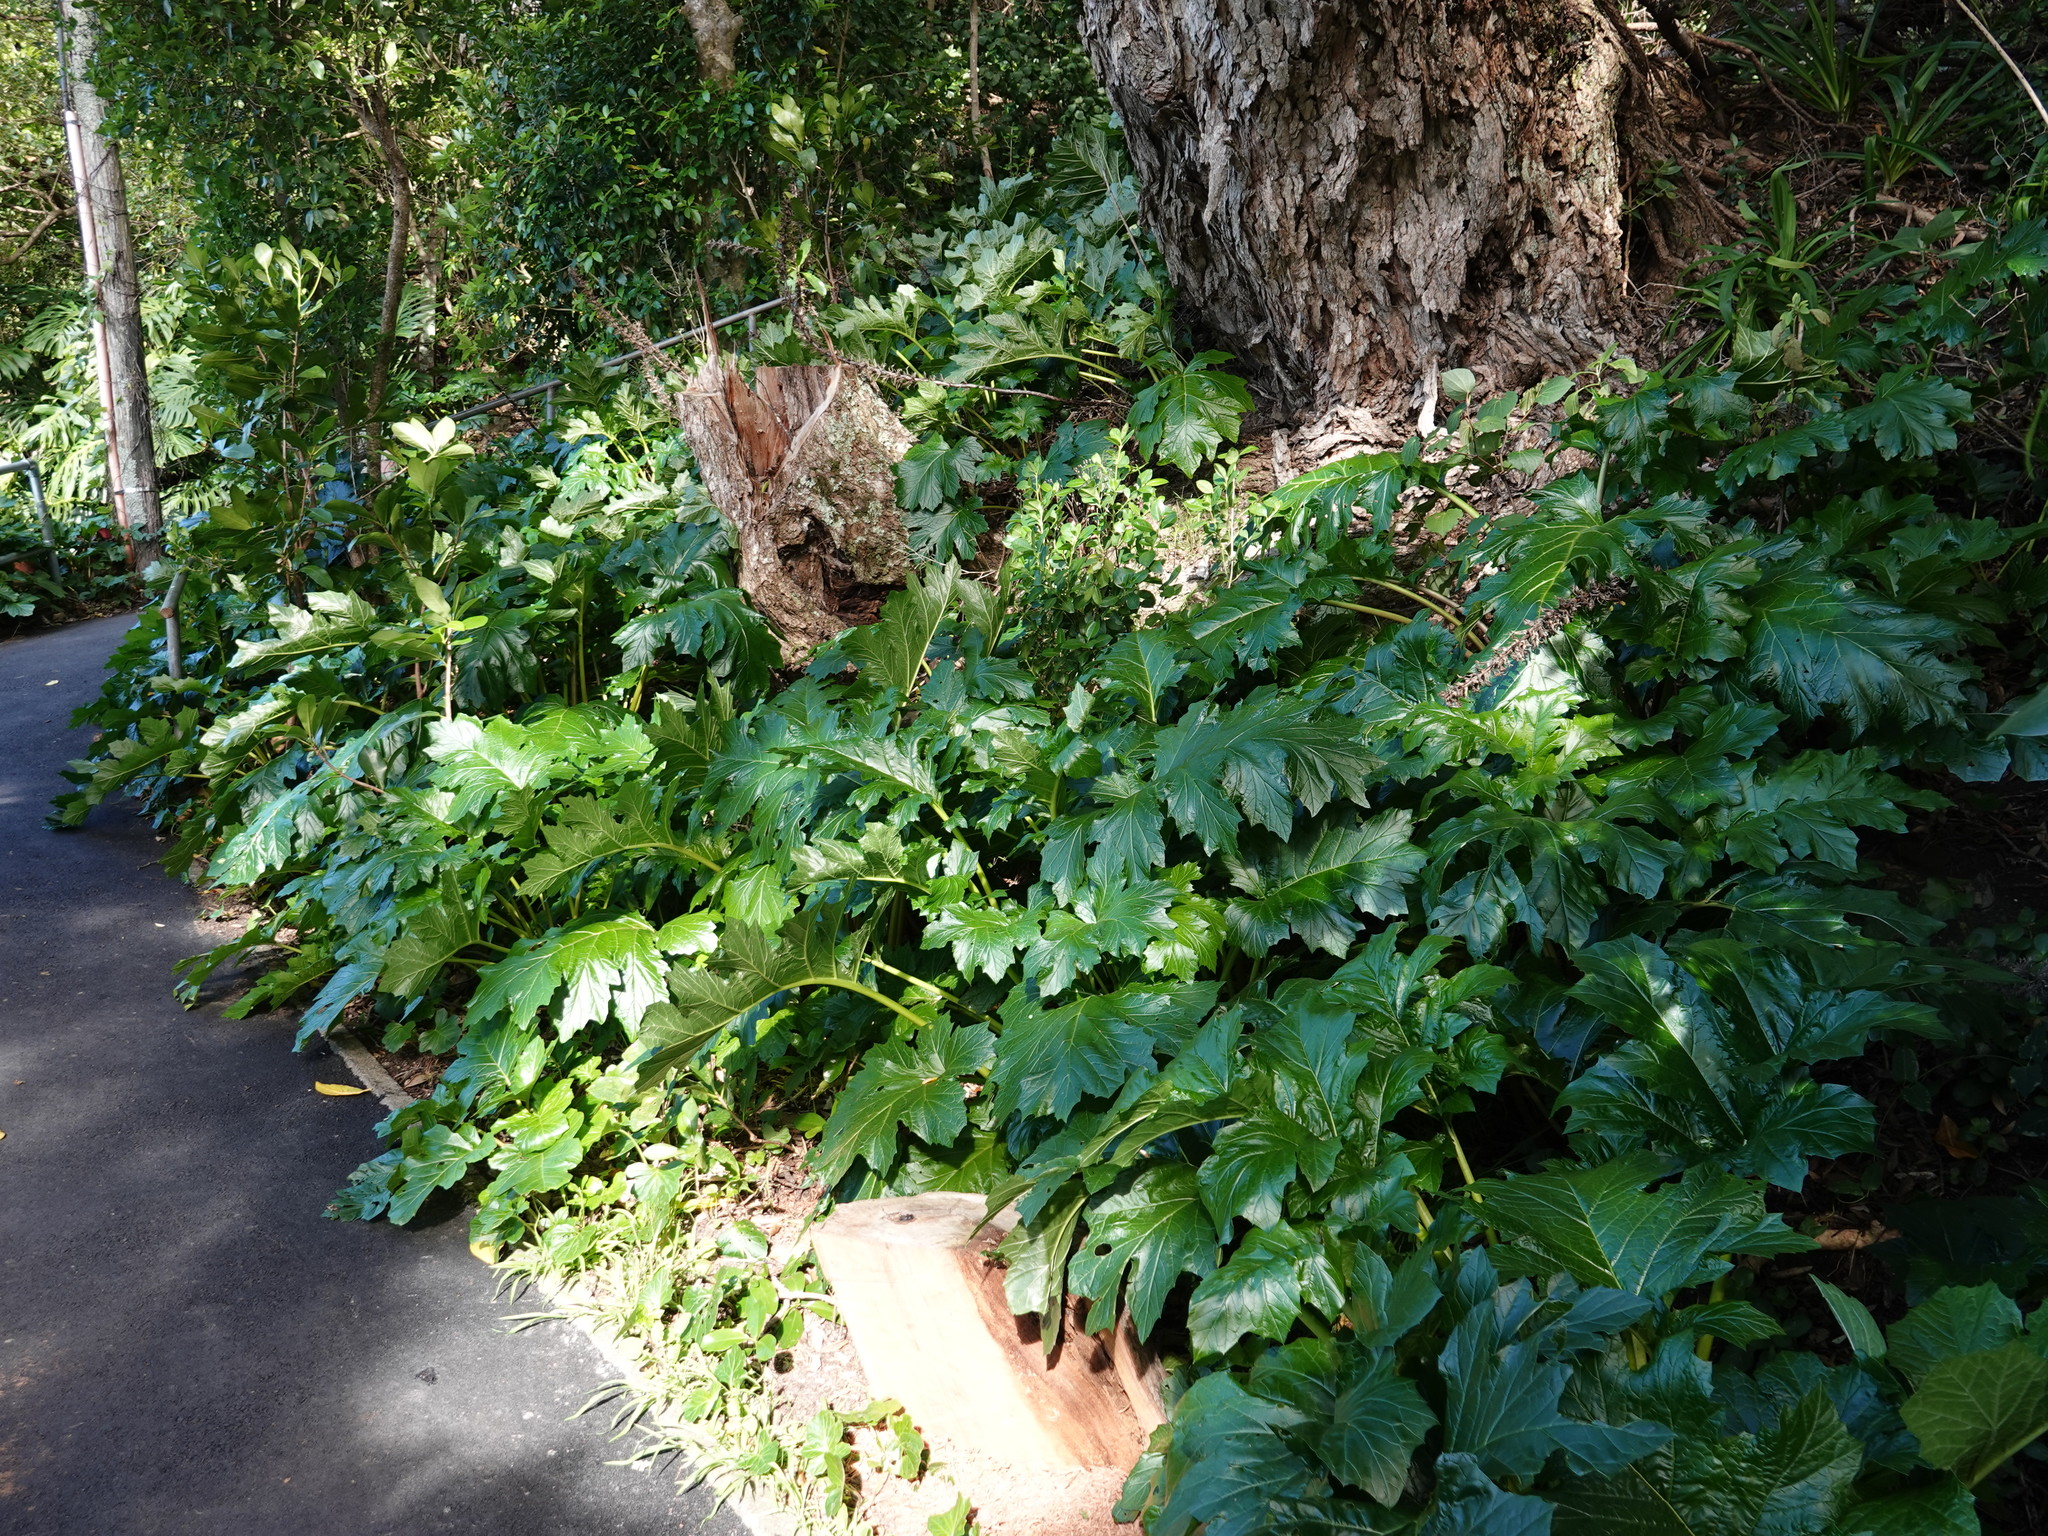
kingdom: Plantae
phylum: Tracheophyta
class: Magnoliopsida
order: Lamiales
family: Acanthaceae
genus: Acanthus
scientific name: Acanthus mollis
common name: Bear's-breech
